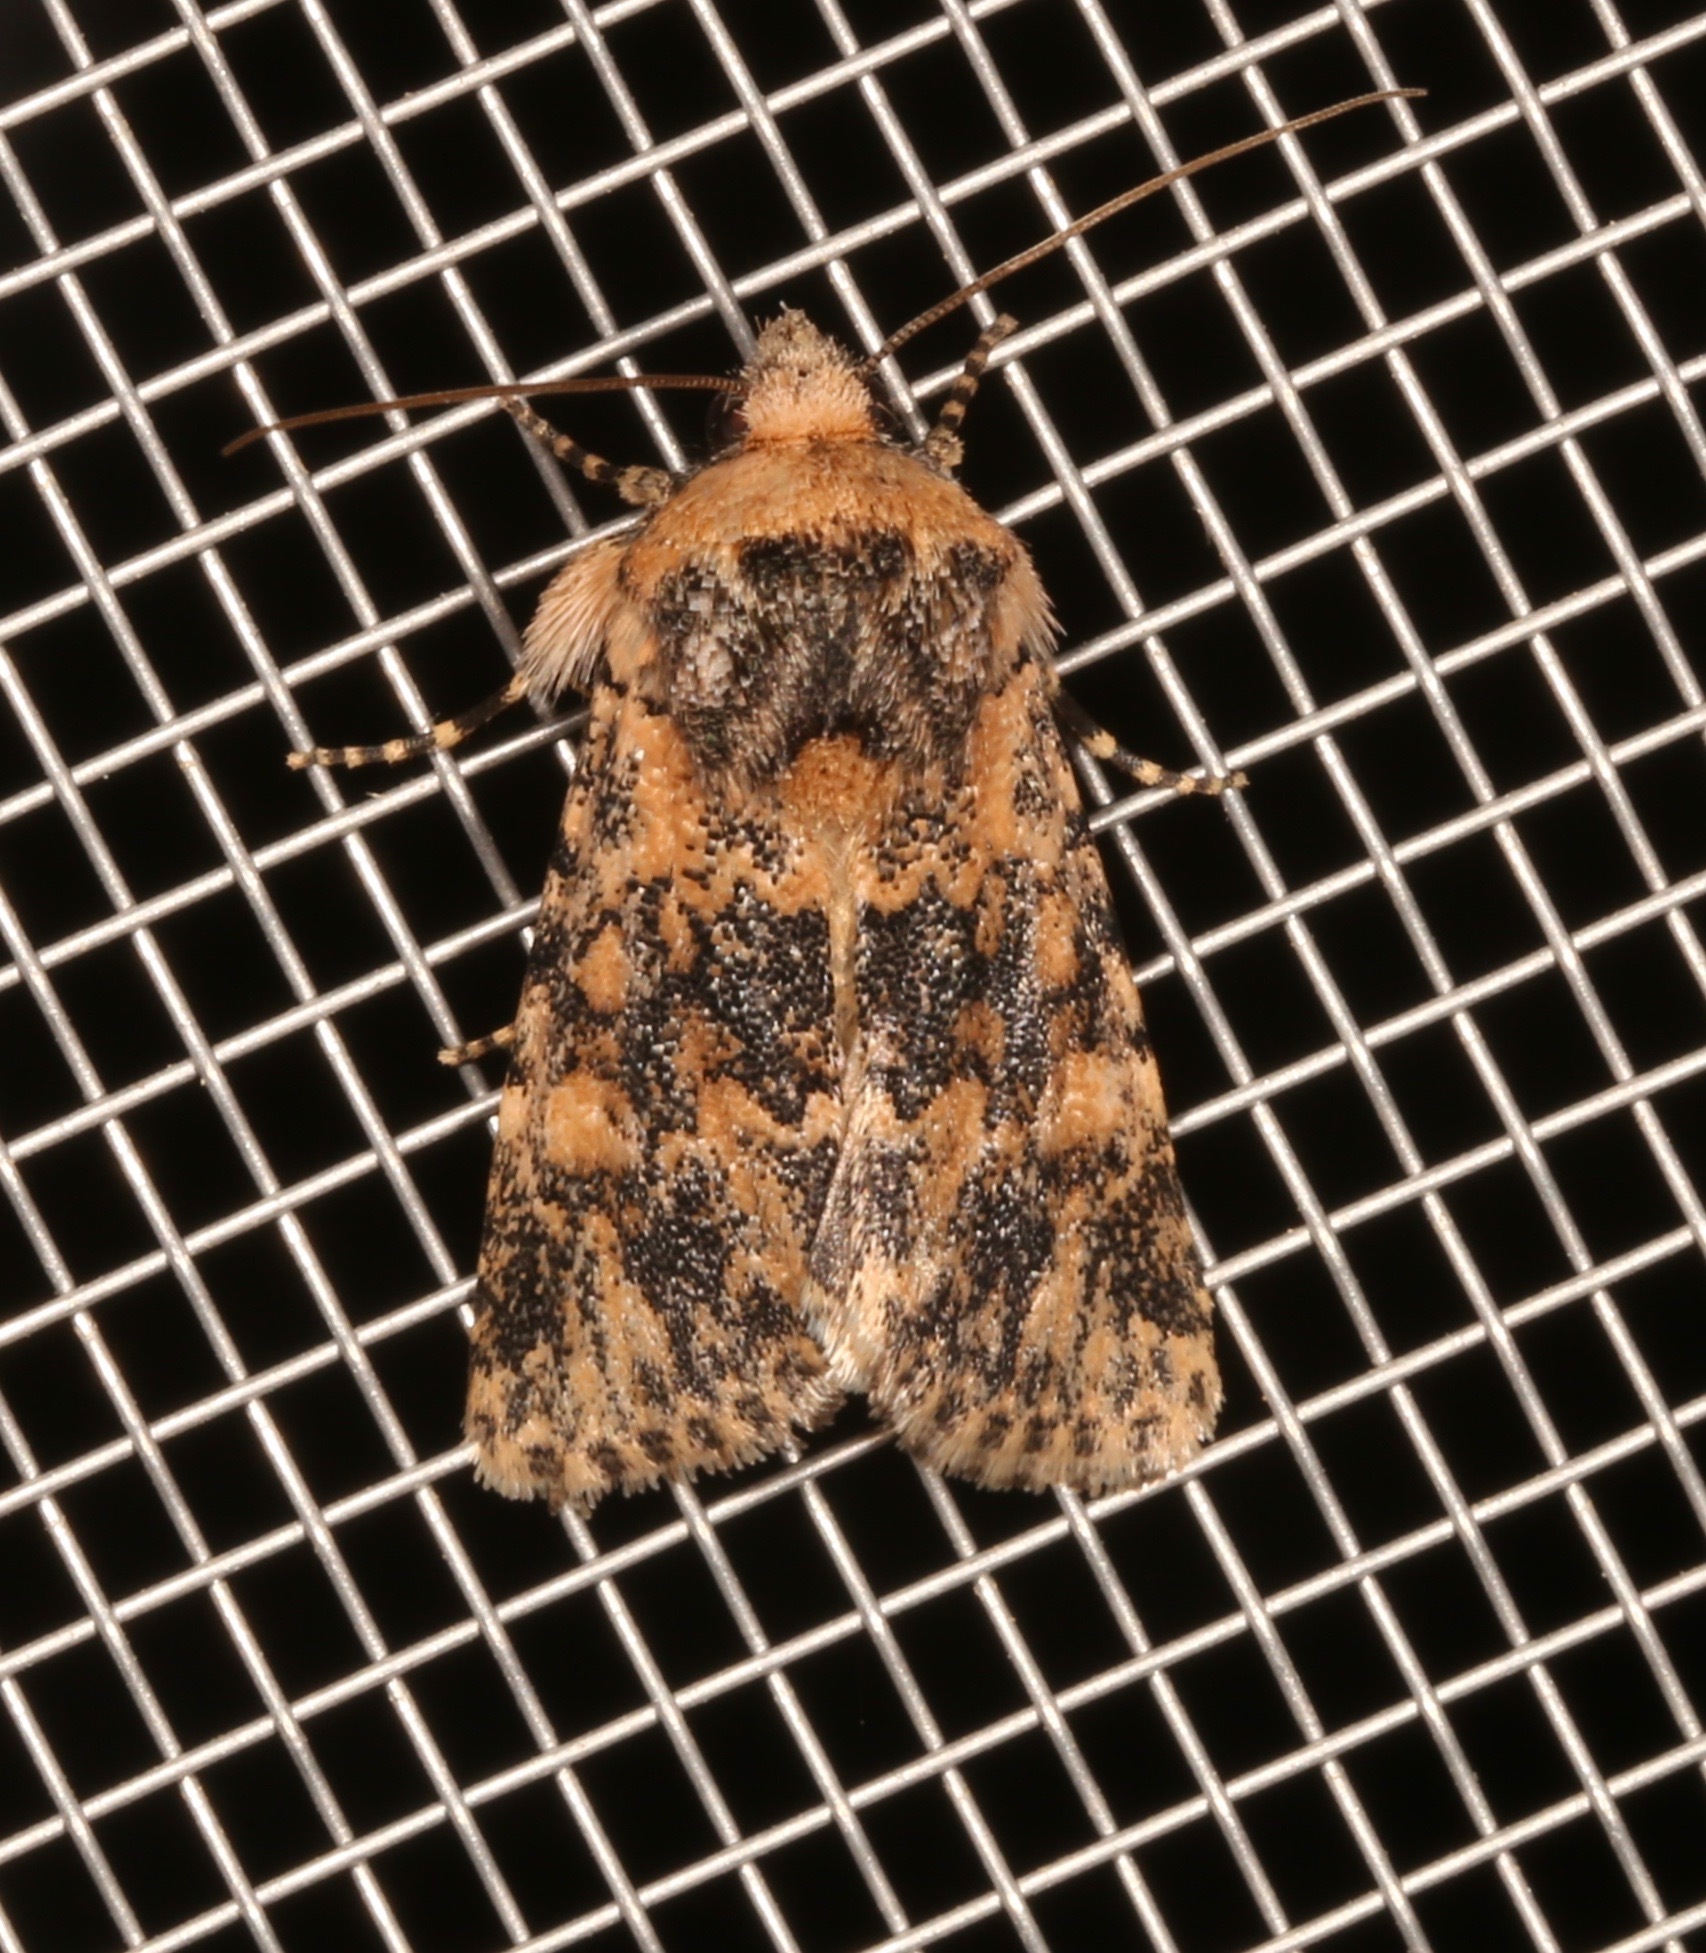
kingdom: Animalia
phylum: Arthropoda
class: Insecta
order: Lepidoptera
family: Noctuidae
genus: Sympistis
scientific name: Sympistis singularis
